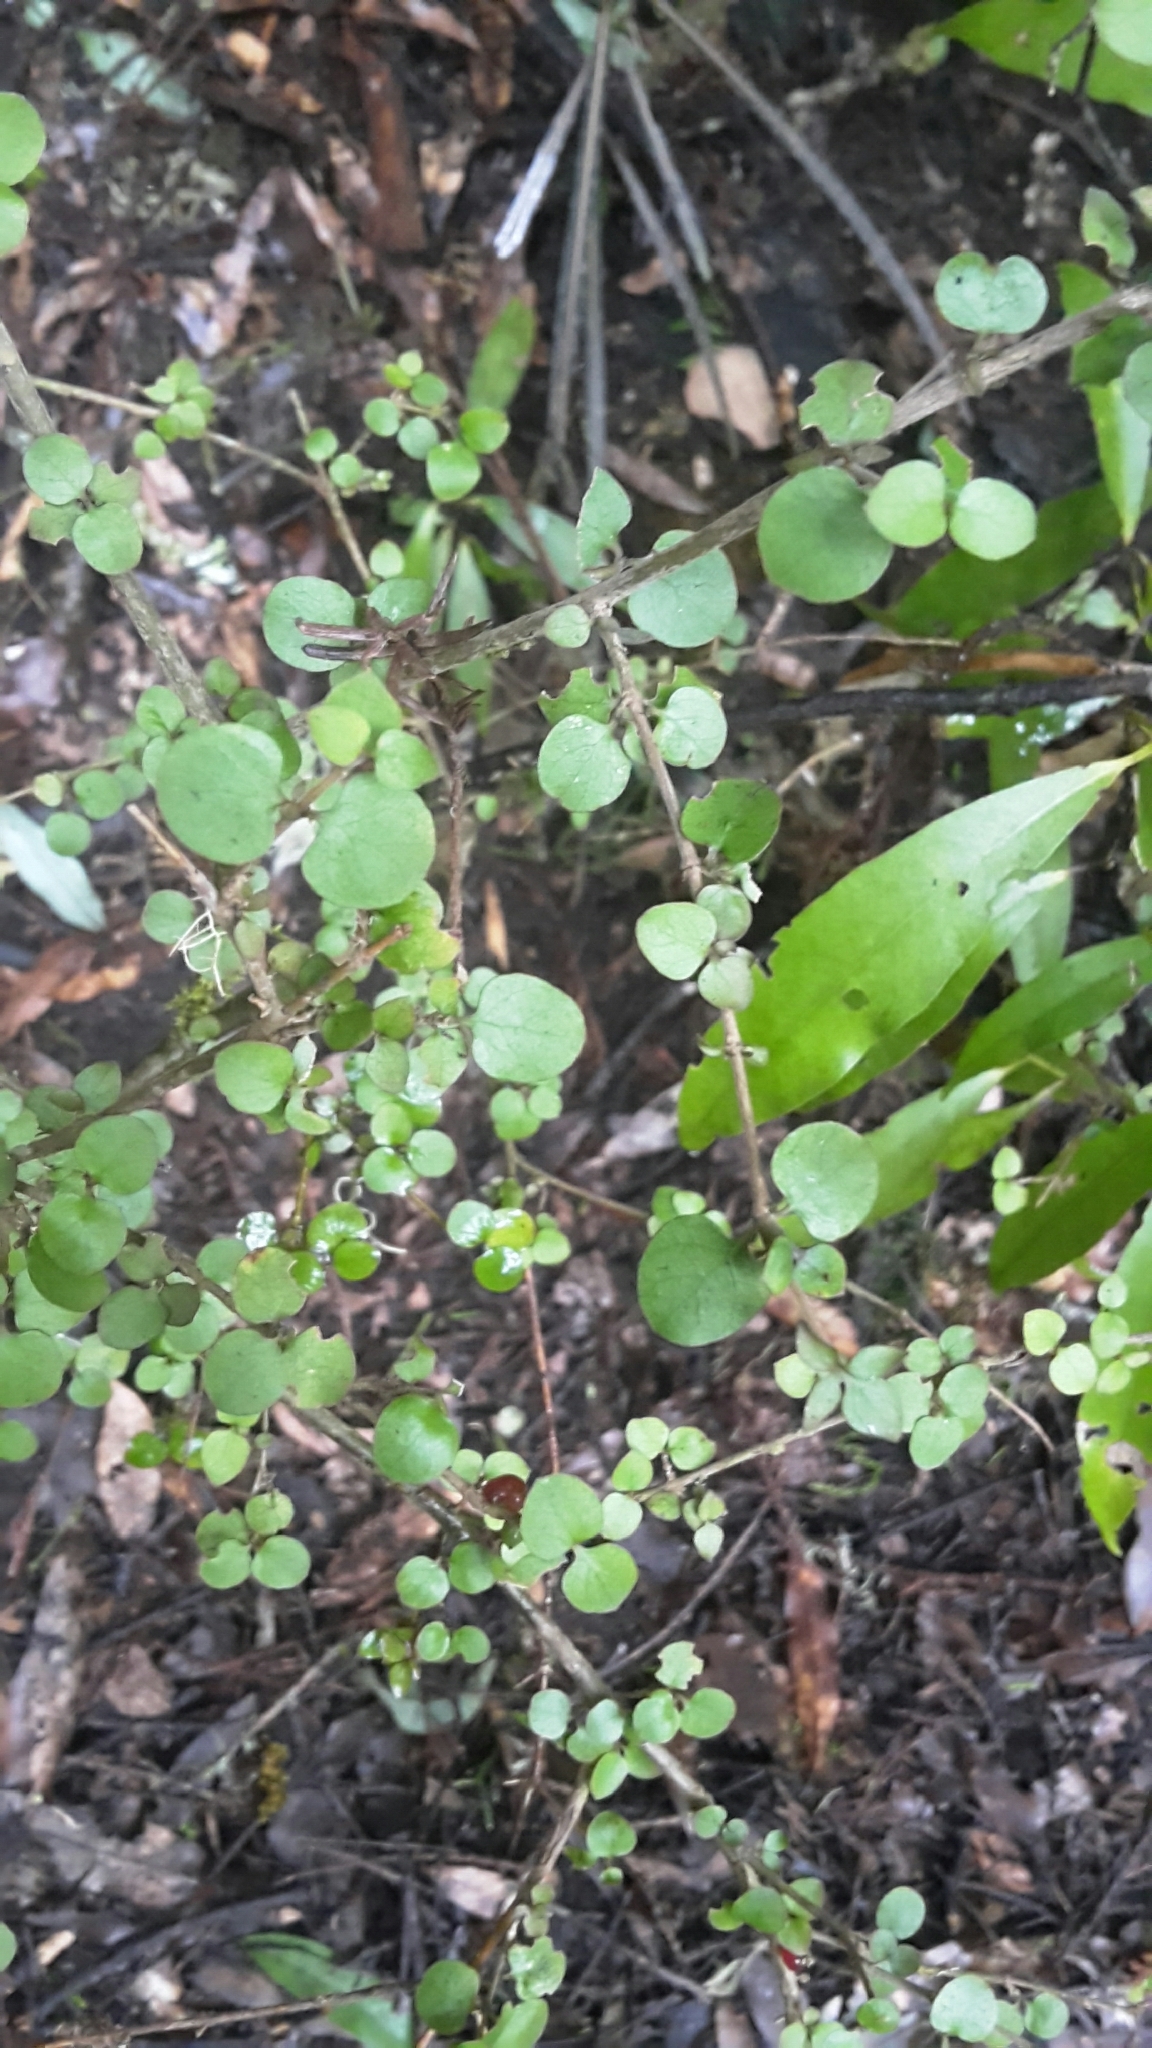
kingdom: Plantae
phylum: Tracheophyta
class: Magnoliopsida
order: Gentianales
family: Rubiaceae
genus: Coprosma
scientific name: Coprosma rhamnoides
